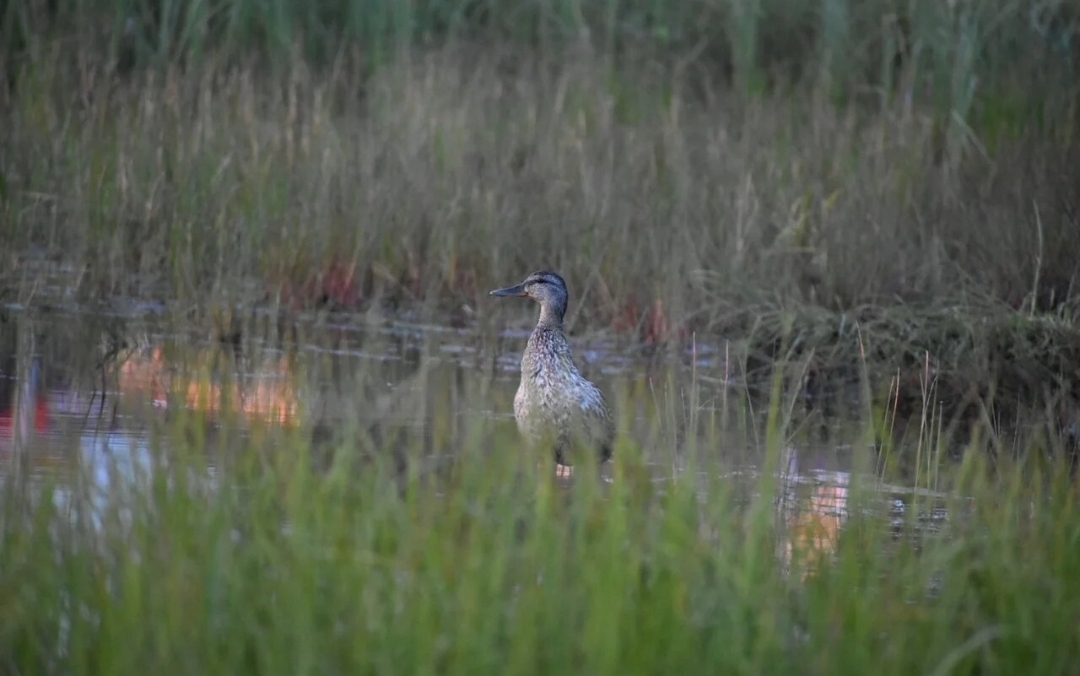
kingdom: Animalia
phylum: Chordata
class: Aves
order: Anseriformes
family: Anatidae
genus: Anas
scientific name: Anas platyrhynchos
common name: Mallard
